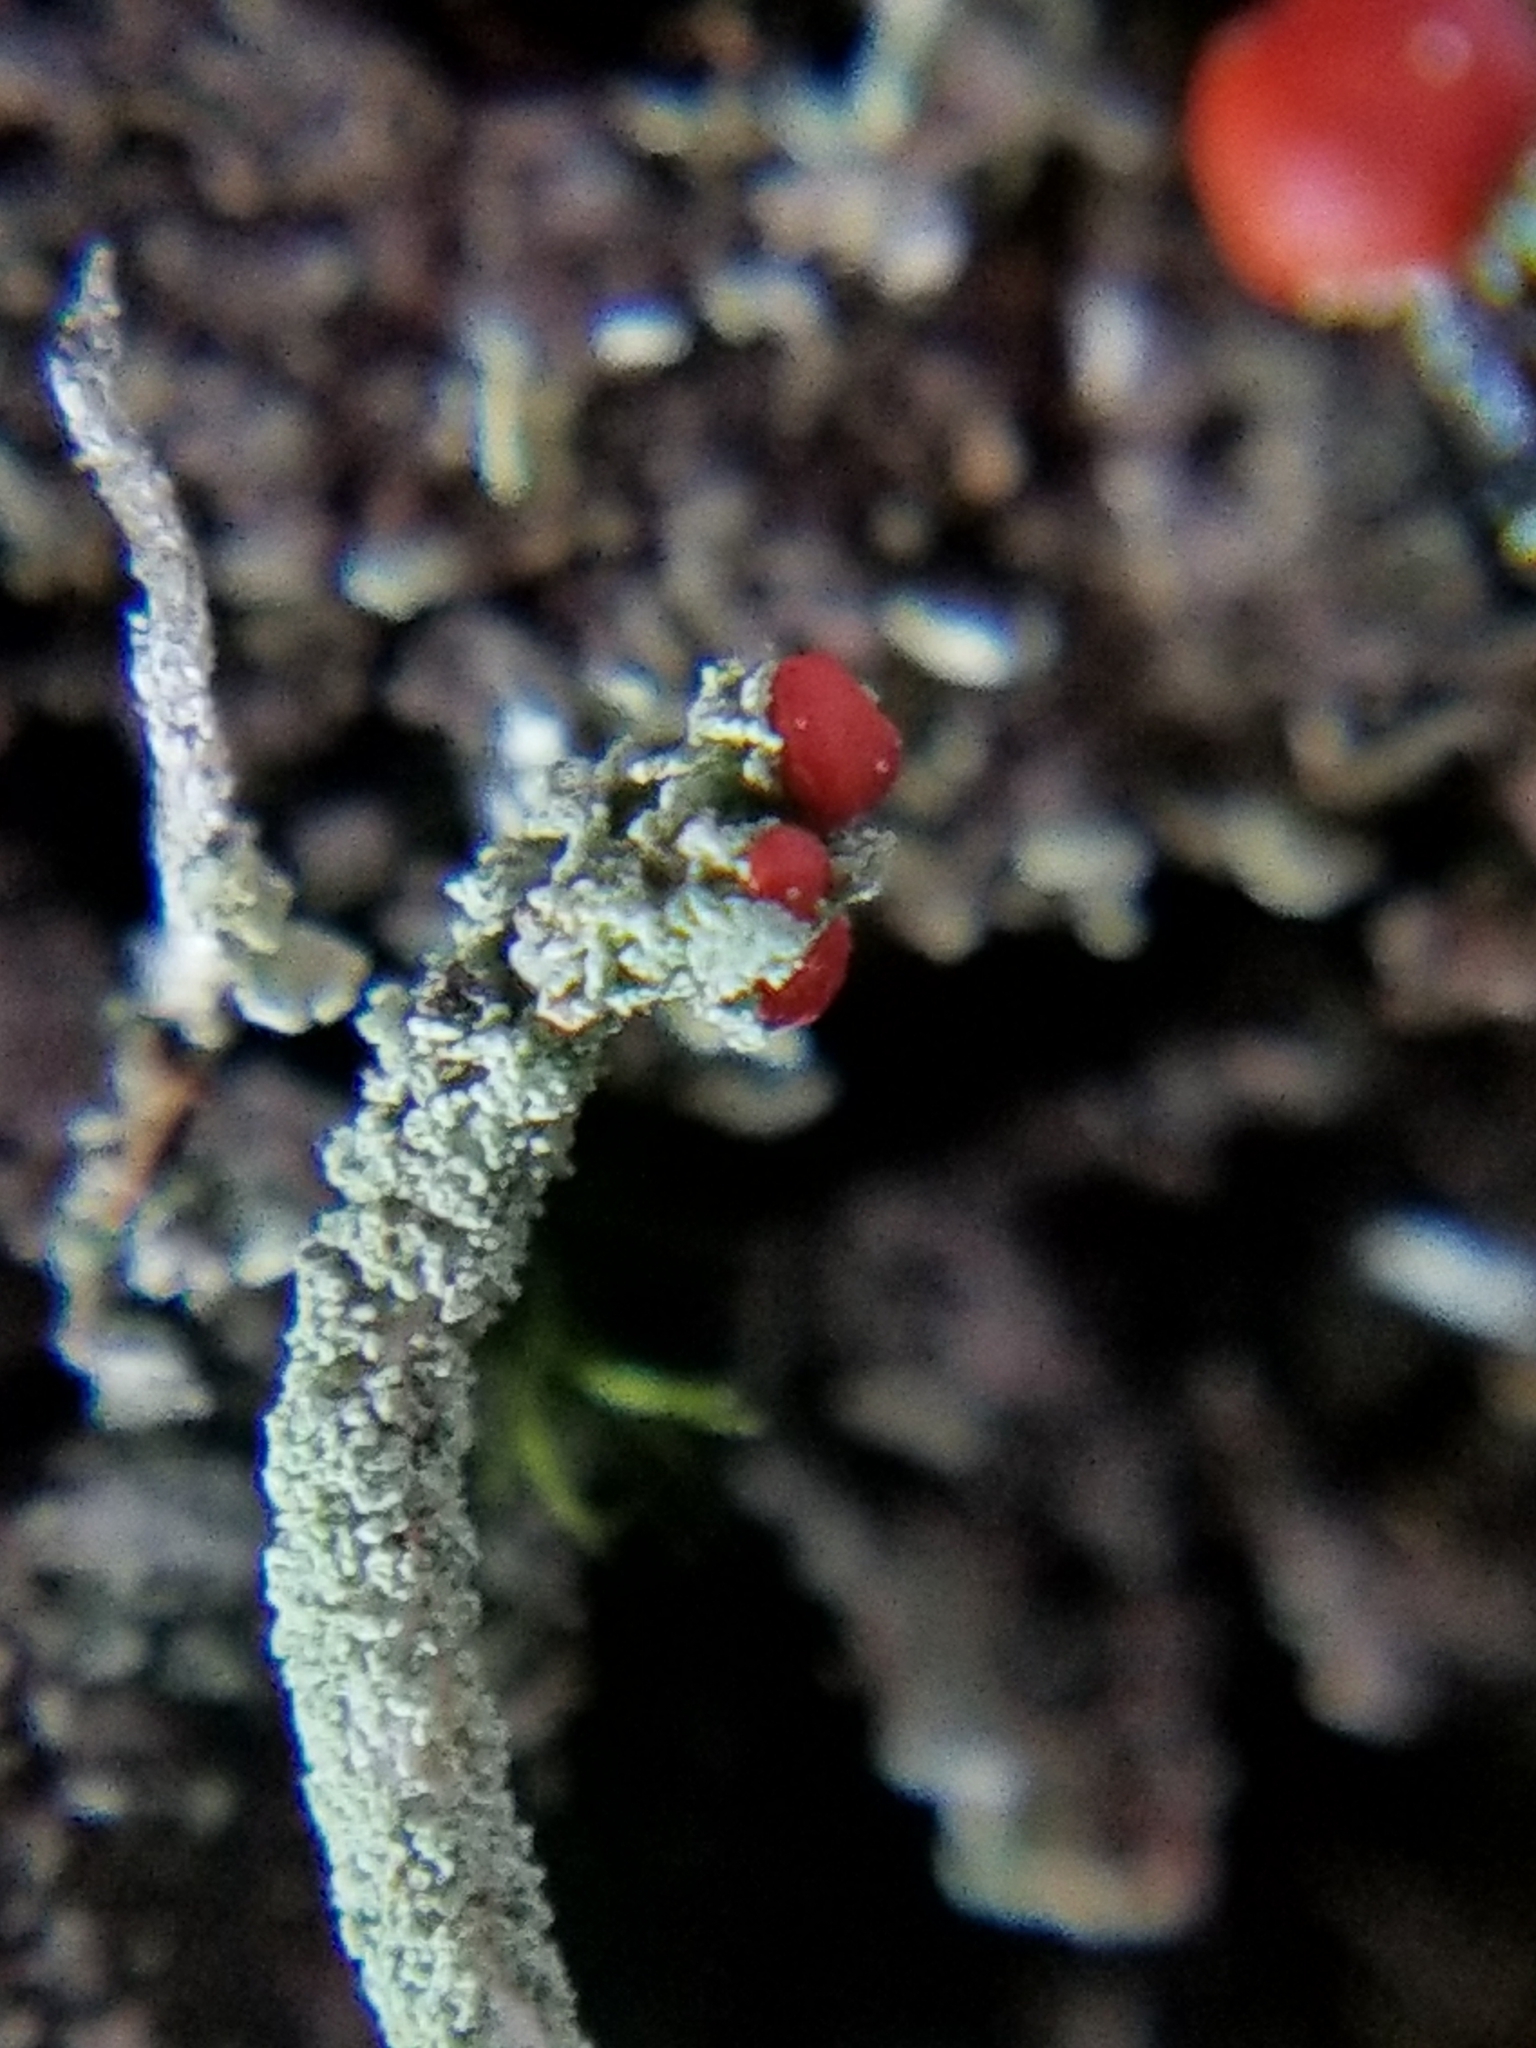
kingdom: Fungi
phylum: Ascomycota
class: Lecanoromycetes
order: Lecanorales
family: Cladoniaceae
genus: Cladonia
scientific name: Cladonia macilenta
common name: Lipstick powderhorn
